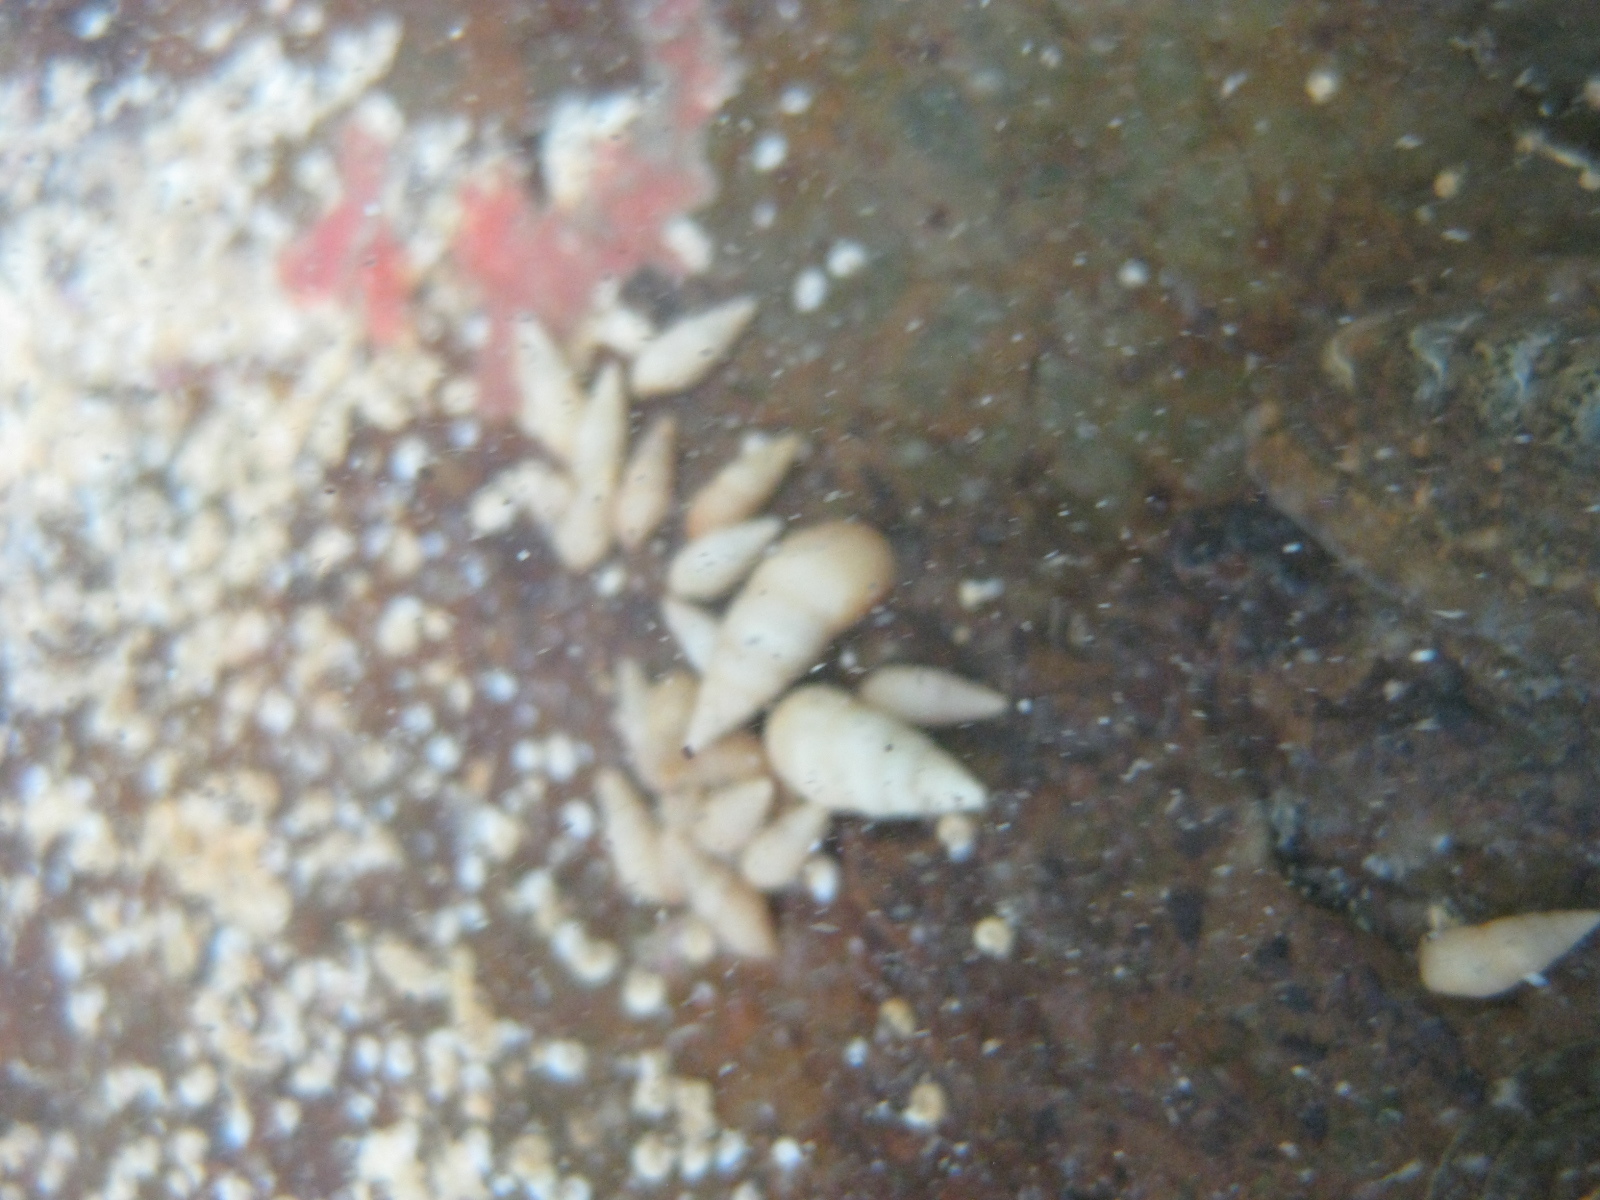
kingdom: Animalia
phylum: Mollusca
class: Gastropoda
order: Littorinimorpha
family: Rissoinidae
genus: Rissoina
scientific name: Rissoina zonata
